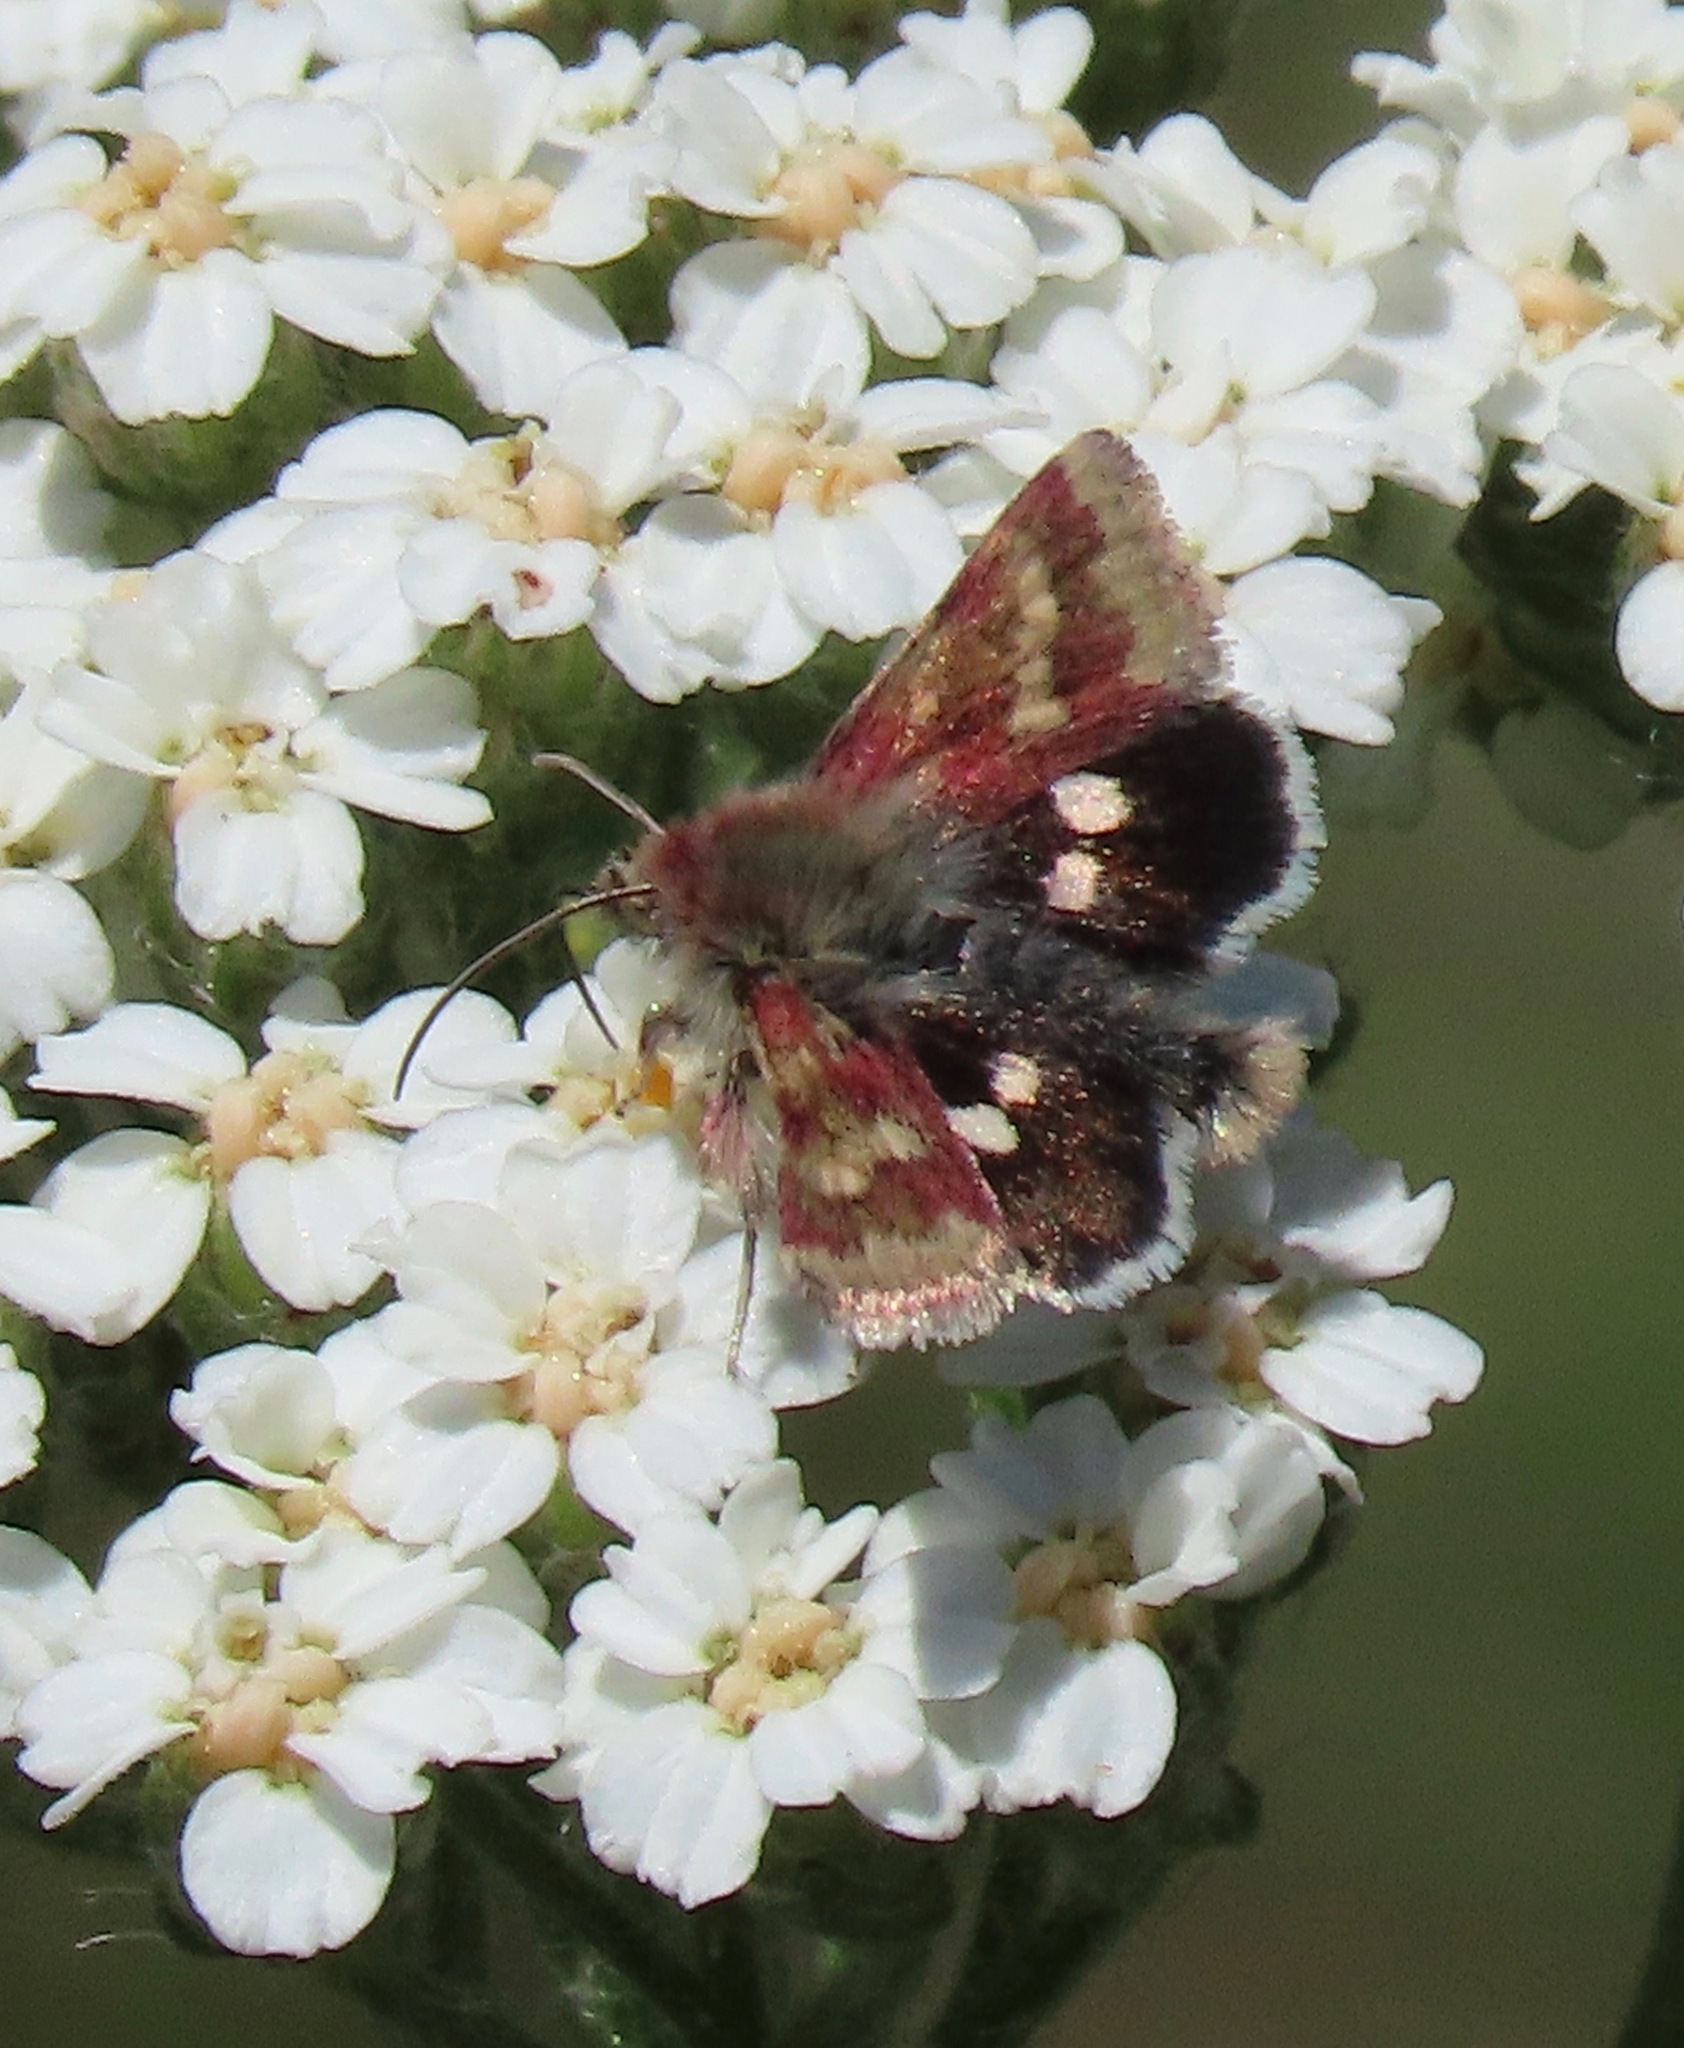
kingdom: Animalia
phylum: Arthropoda
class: Insecta
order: Lepidoptera
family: Noctuidae
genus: Heliothodes
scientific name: Heliothodes diminutiva
